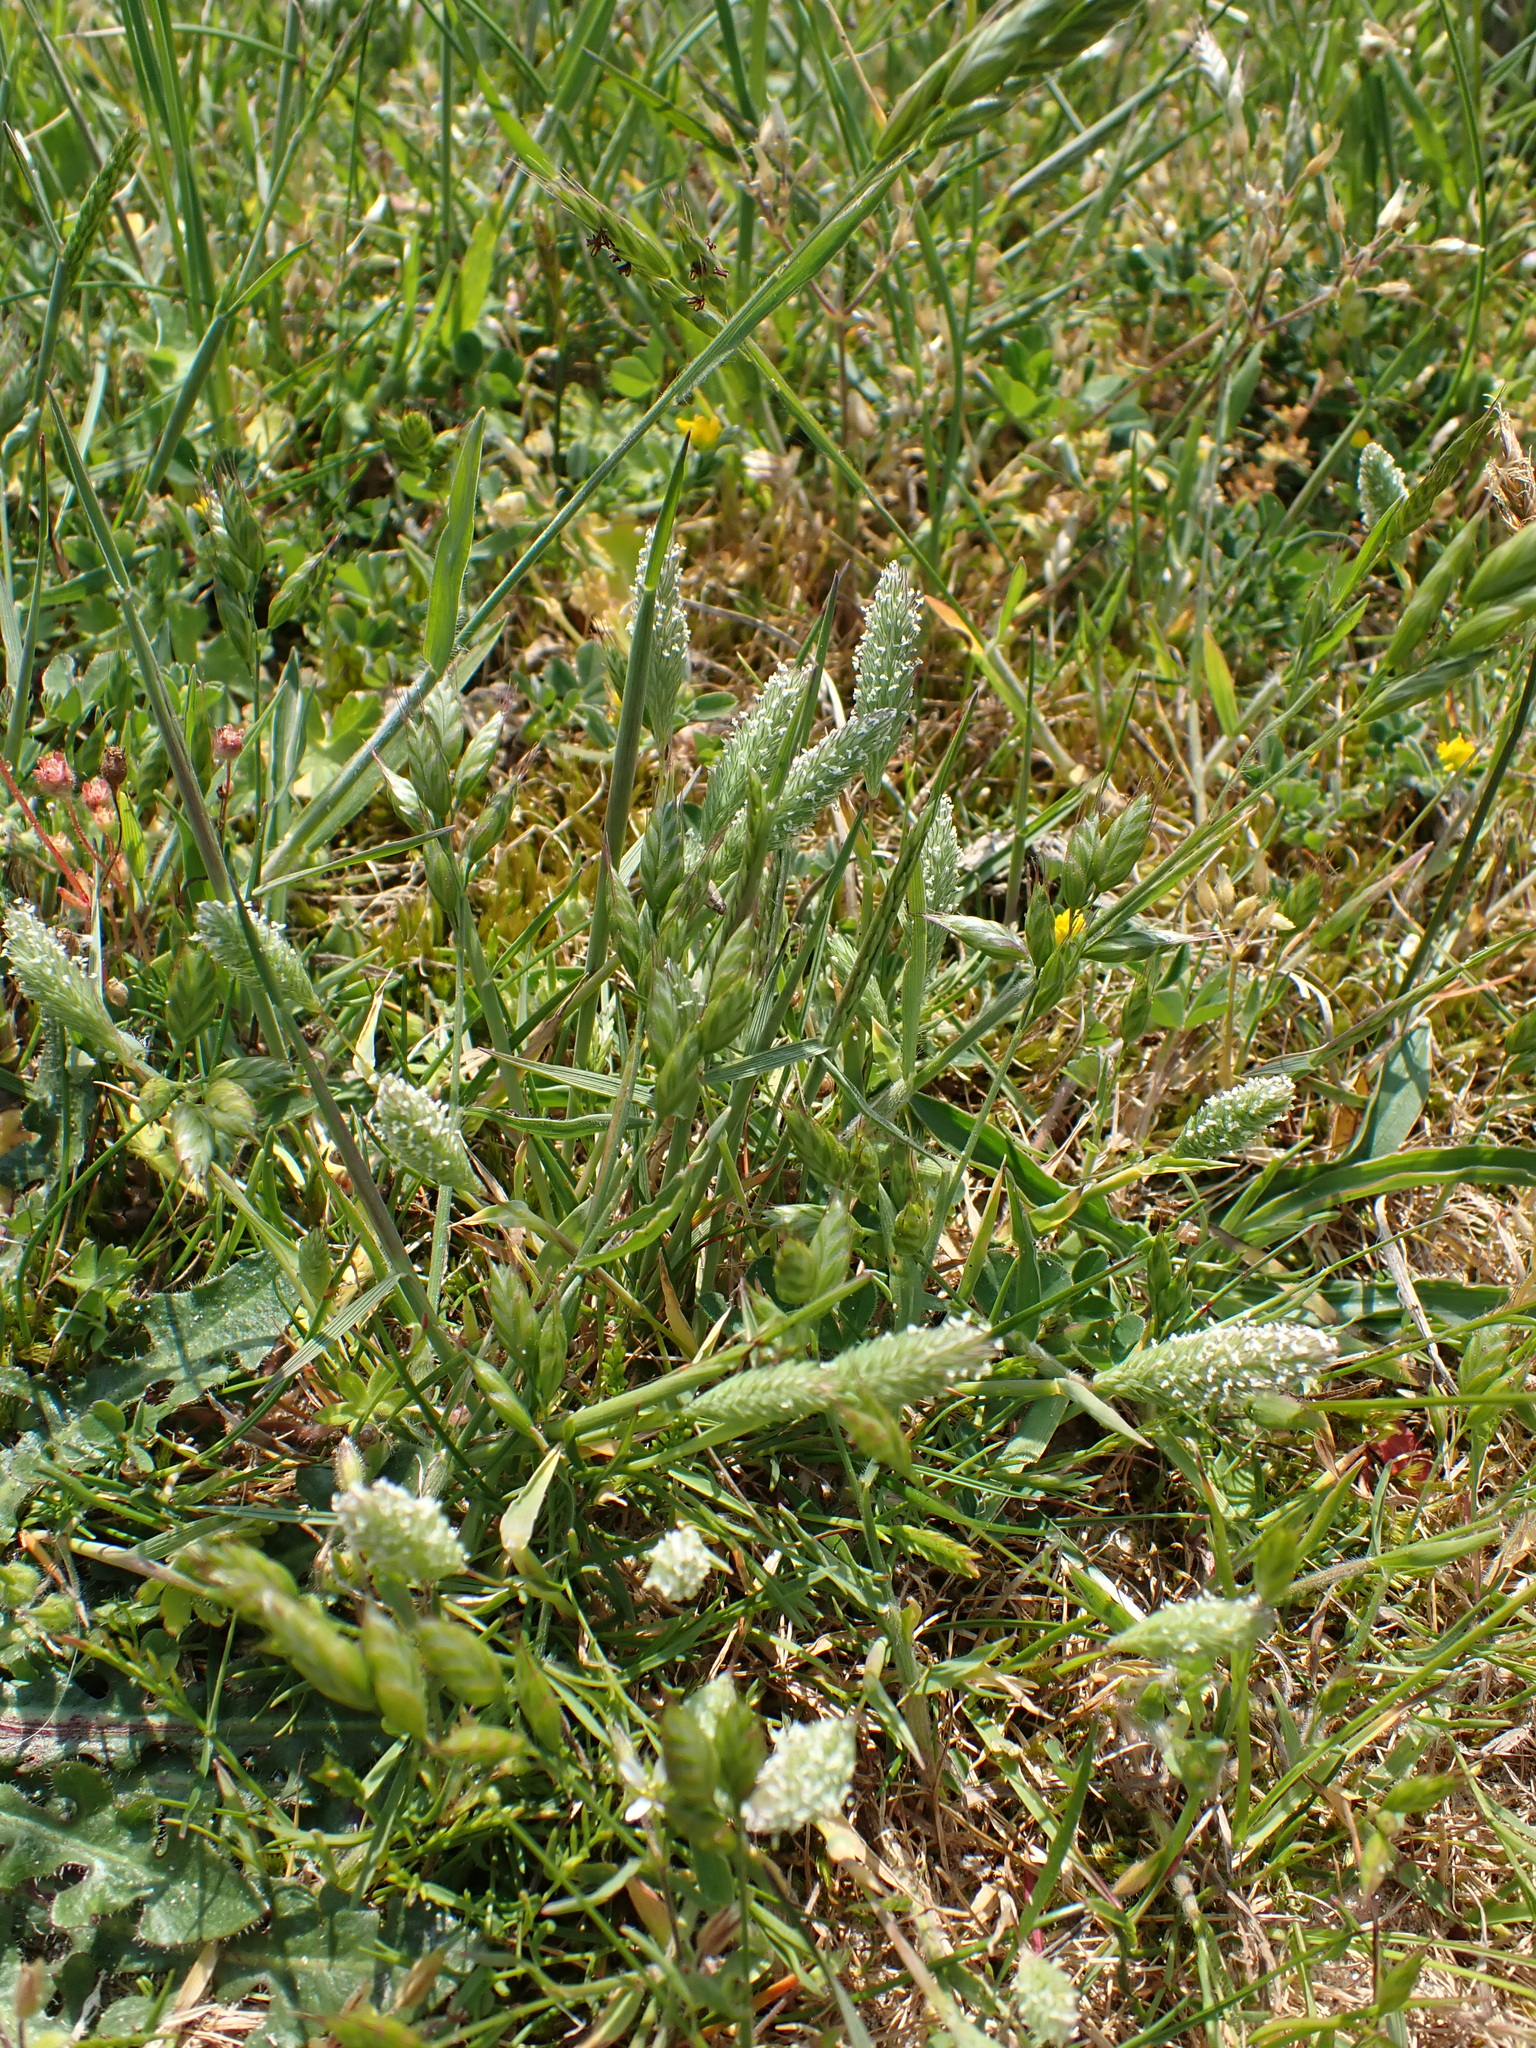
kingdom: Plantae
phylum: Tracheophyta
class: Liliopsida
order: Poales
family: Poaceae
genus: Phleum
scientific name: Phleum arenarium
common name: Sand cat's-tail
